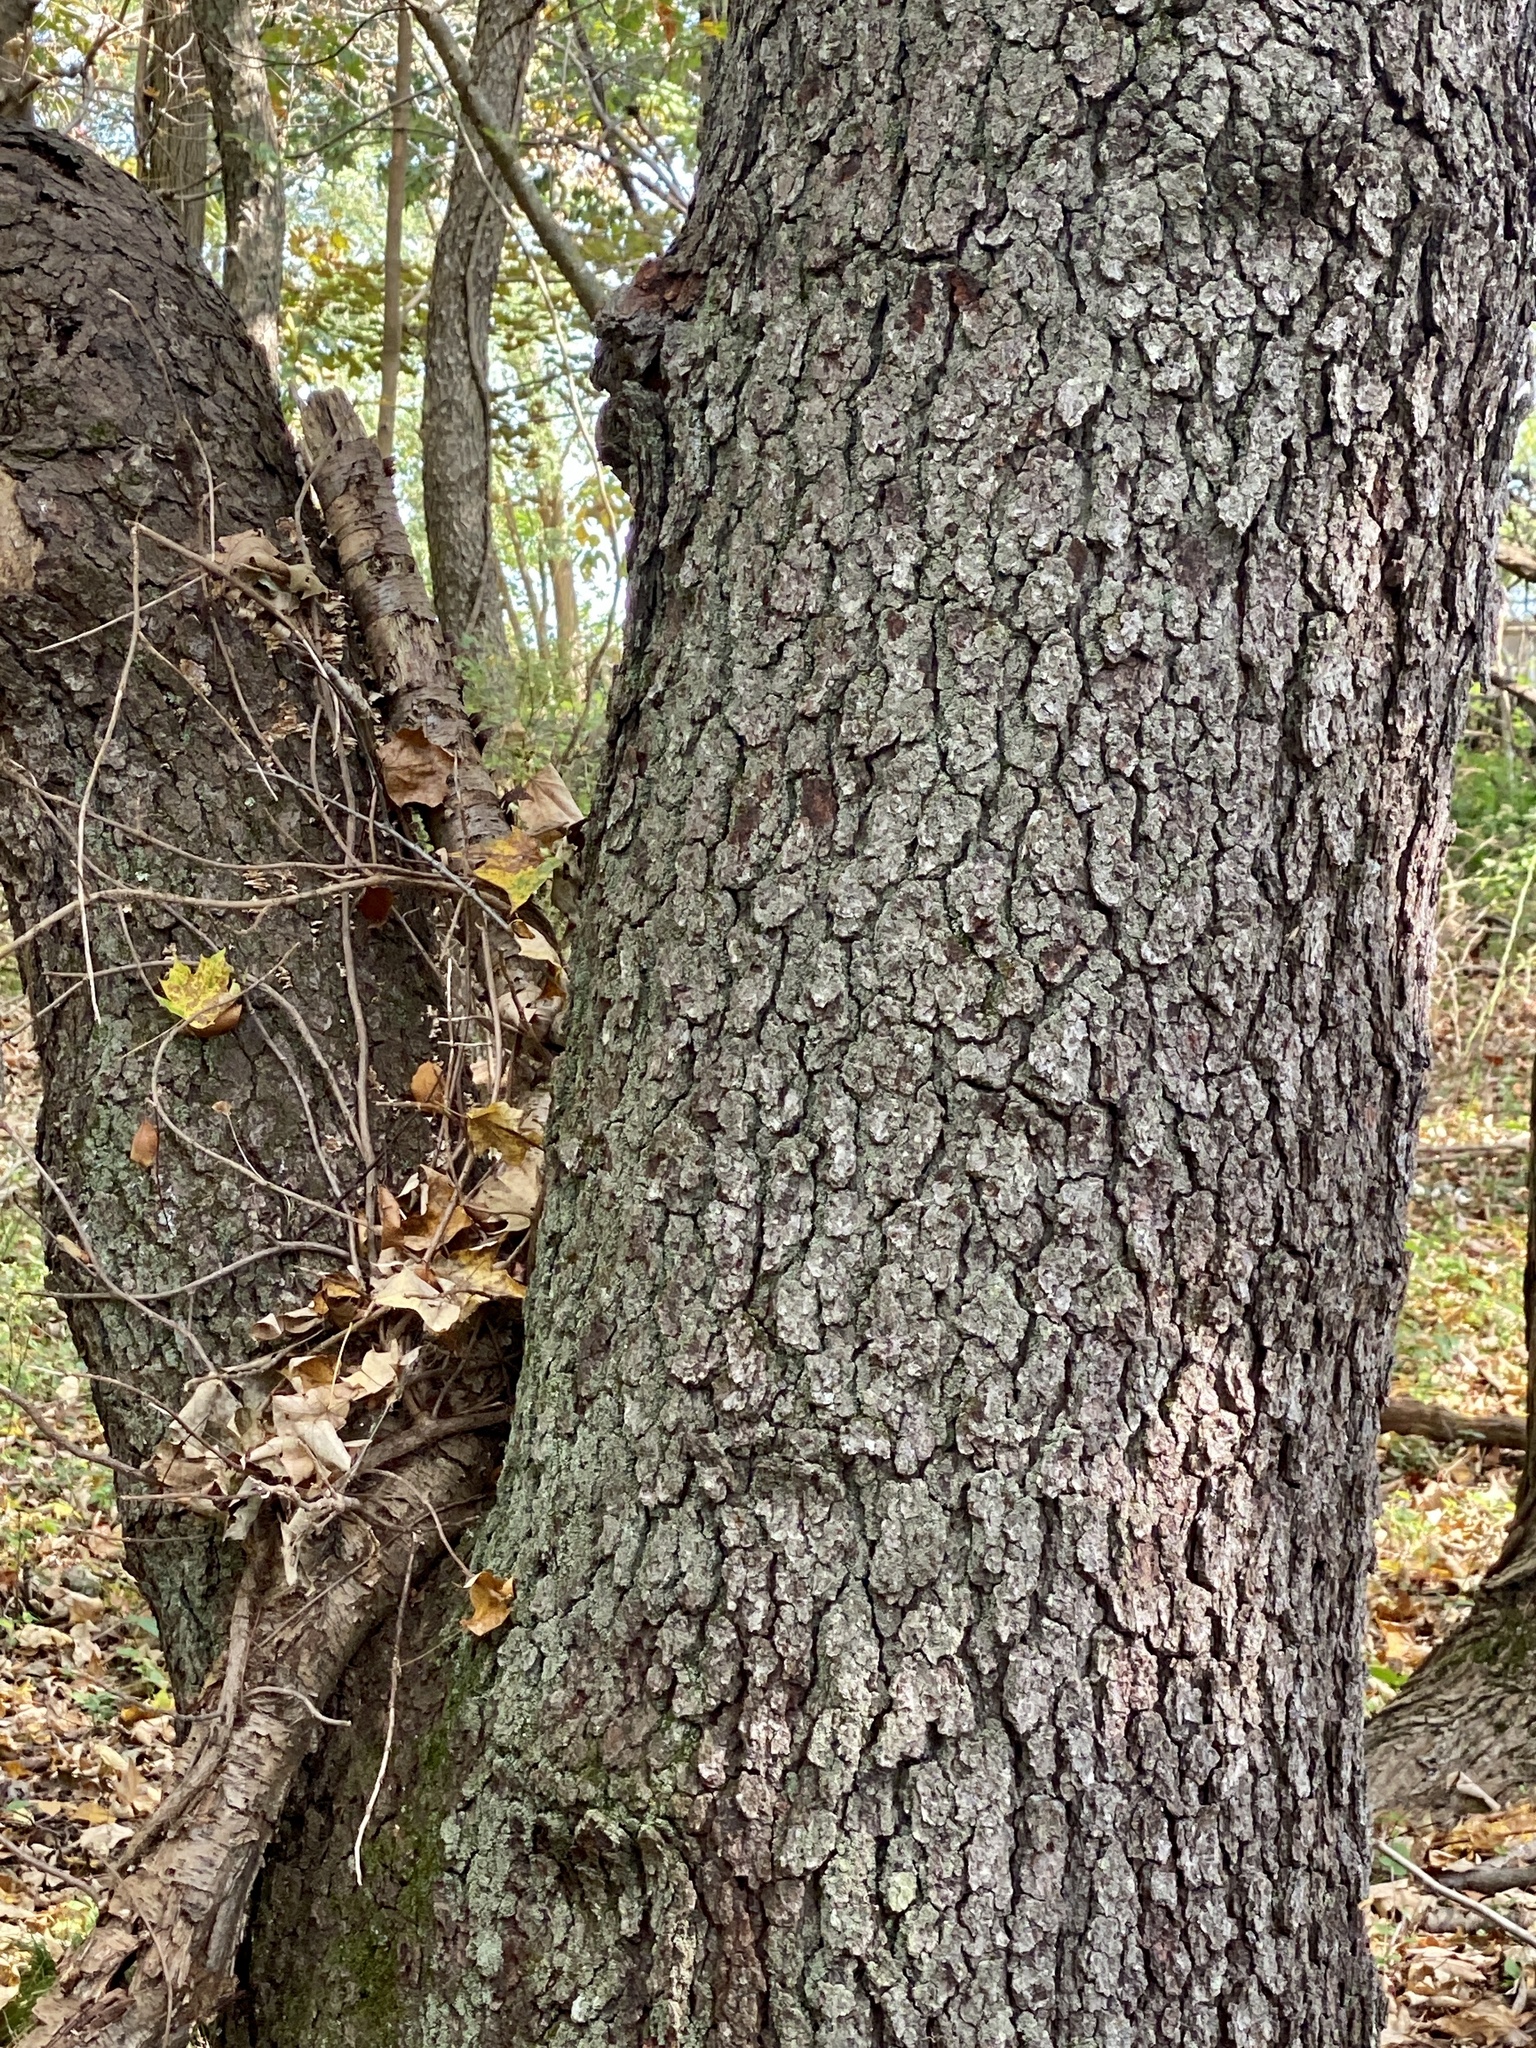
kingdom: Plantae
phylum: Tracheophyta
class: Magnoliopsida
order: Rosales
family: Rosaceae
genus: Prunus
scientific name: Prunus serotina
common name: Black cherry
